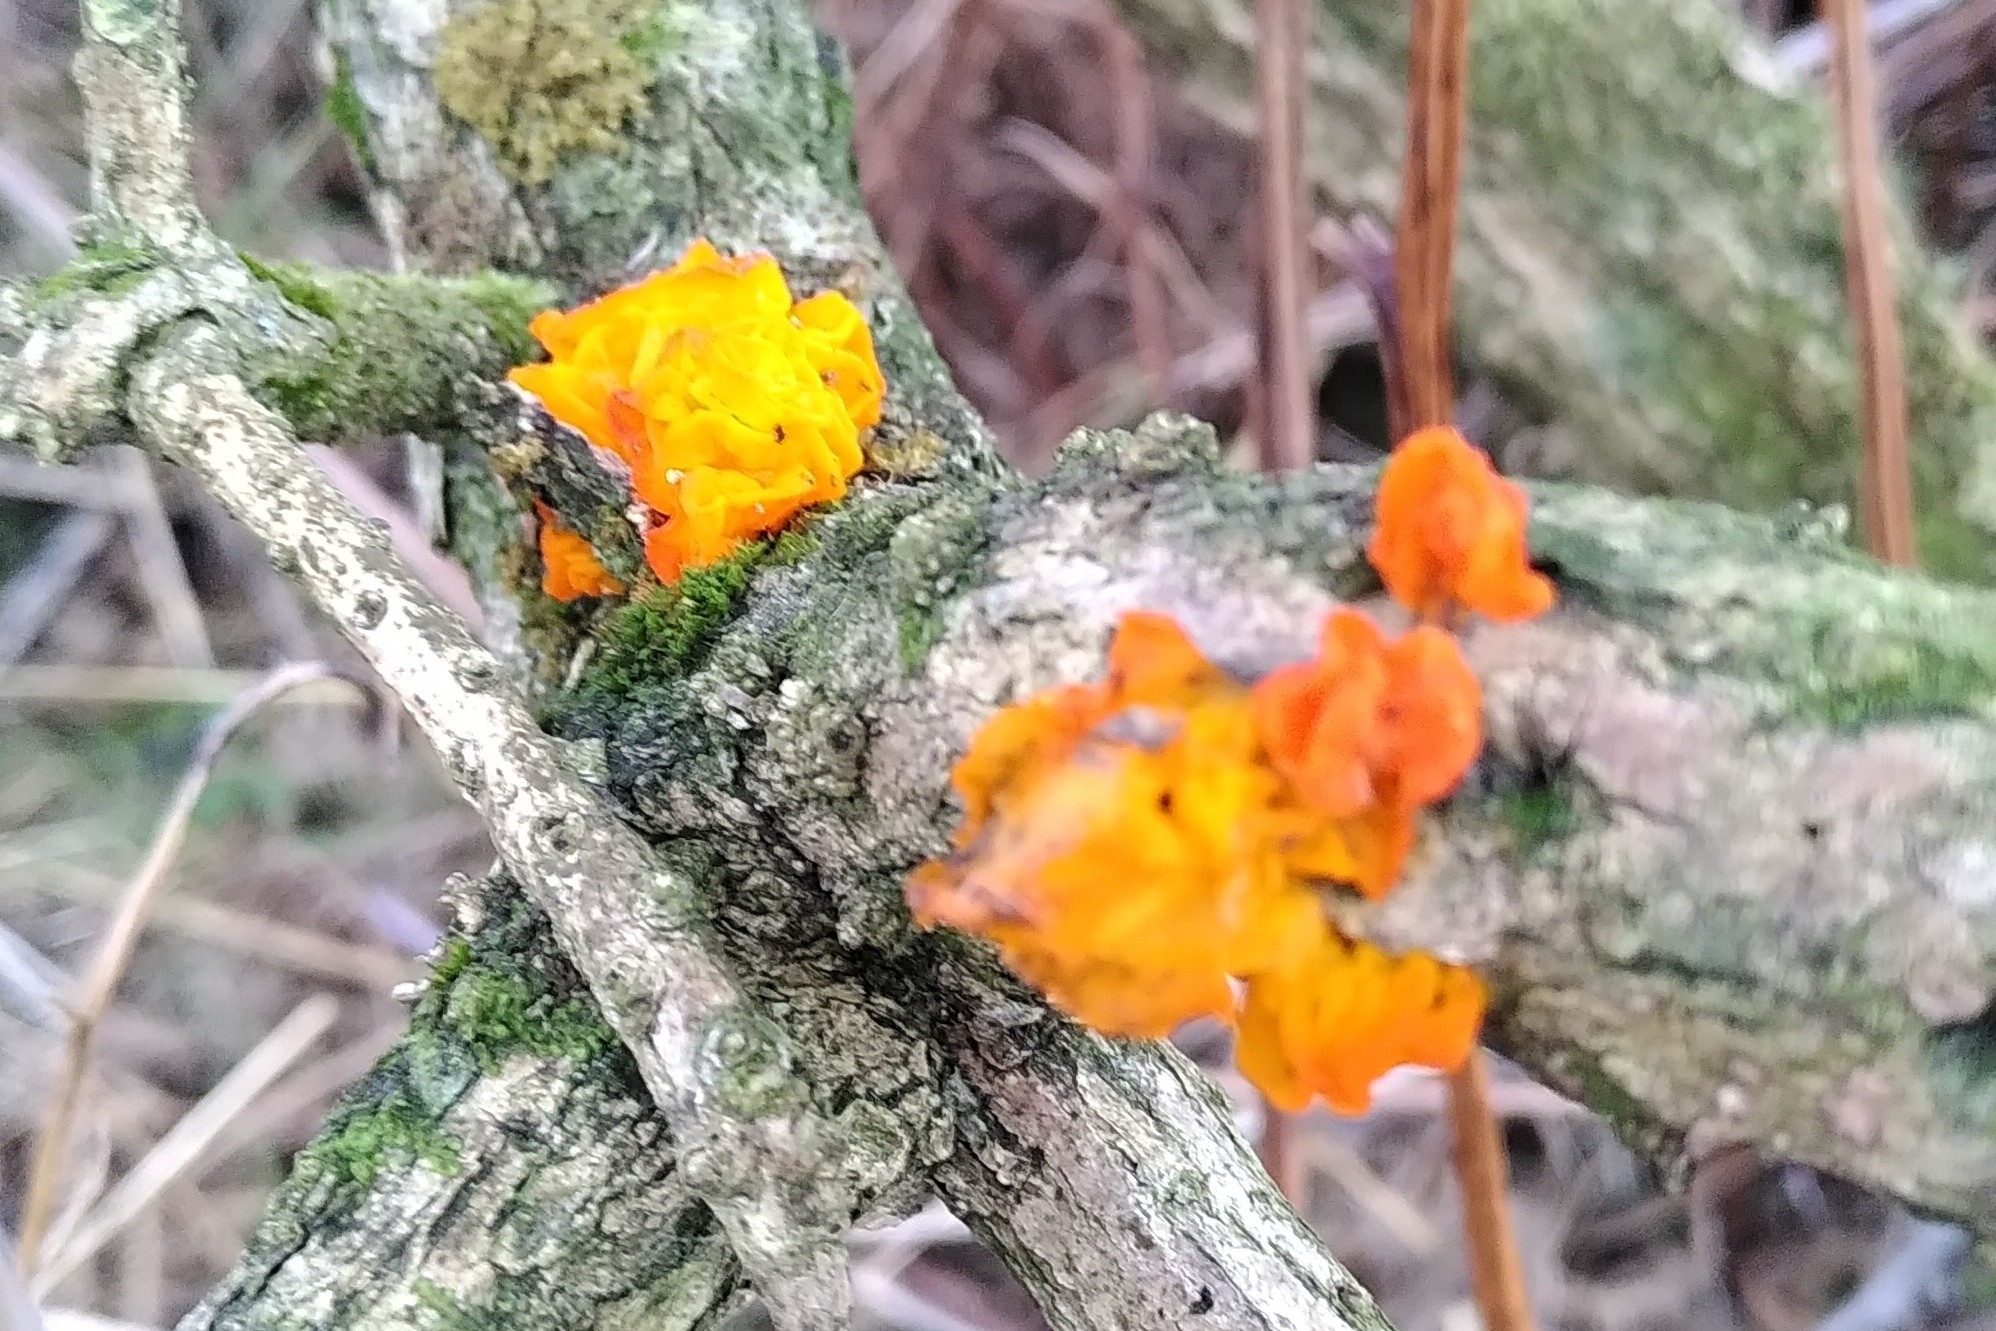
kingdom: Fungi
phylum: Basidiomycota
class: Tremellomycetes
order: Tremellales
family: Tremellaceae
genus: Tremella
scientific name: Tremella mesenterica
